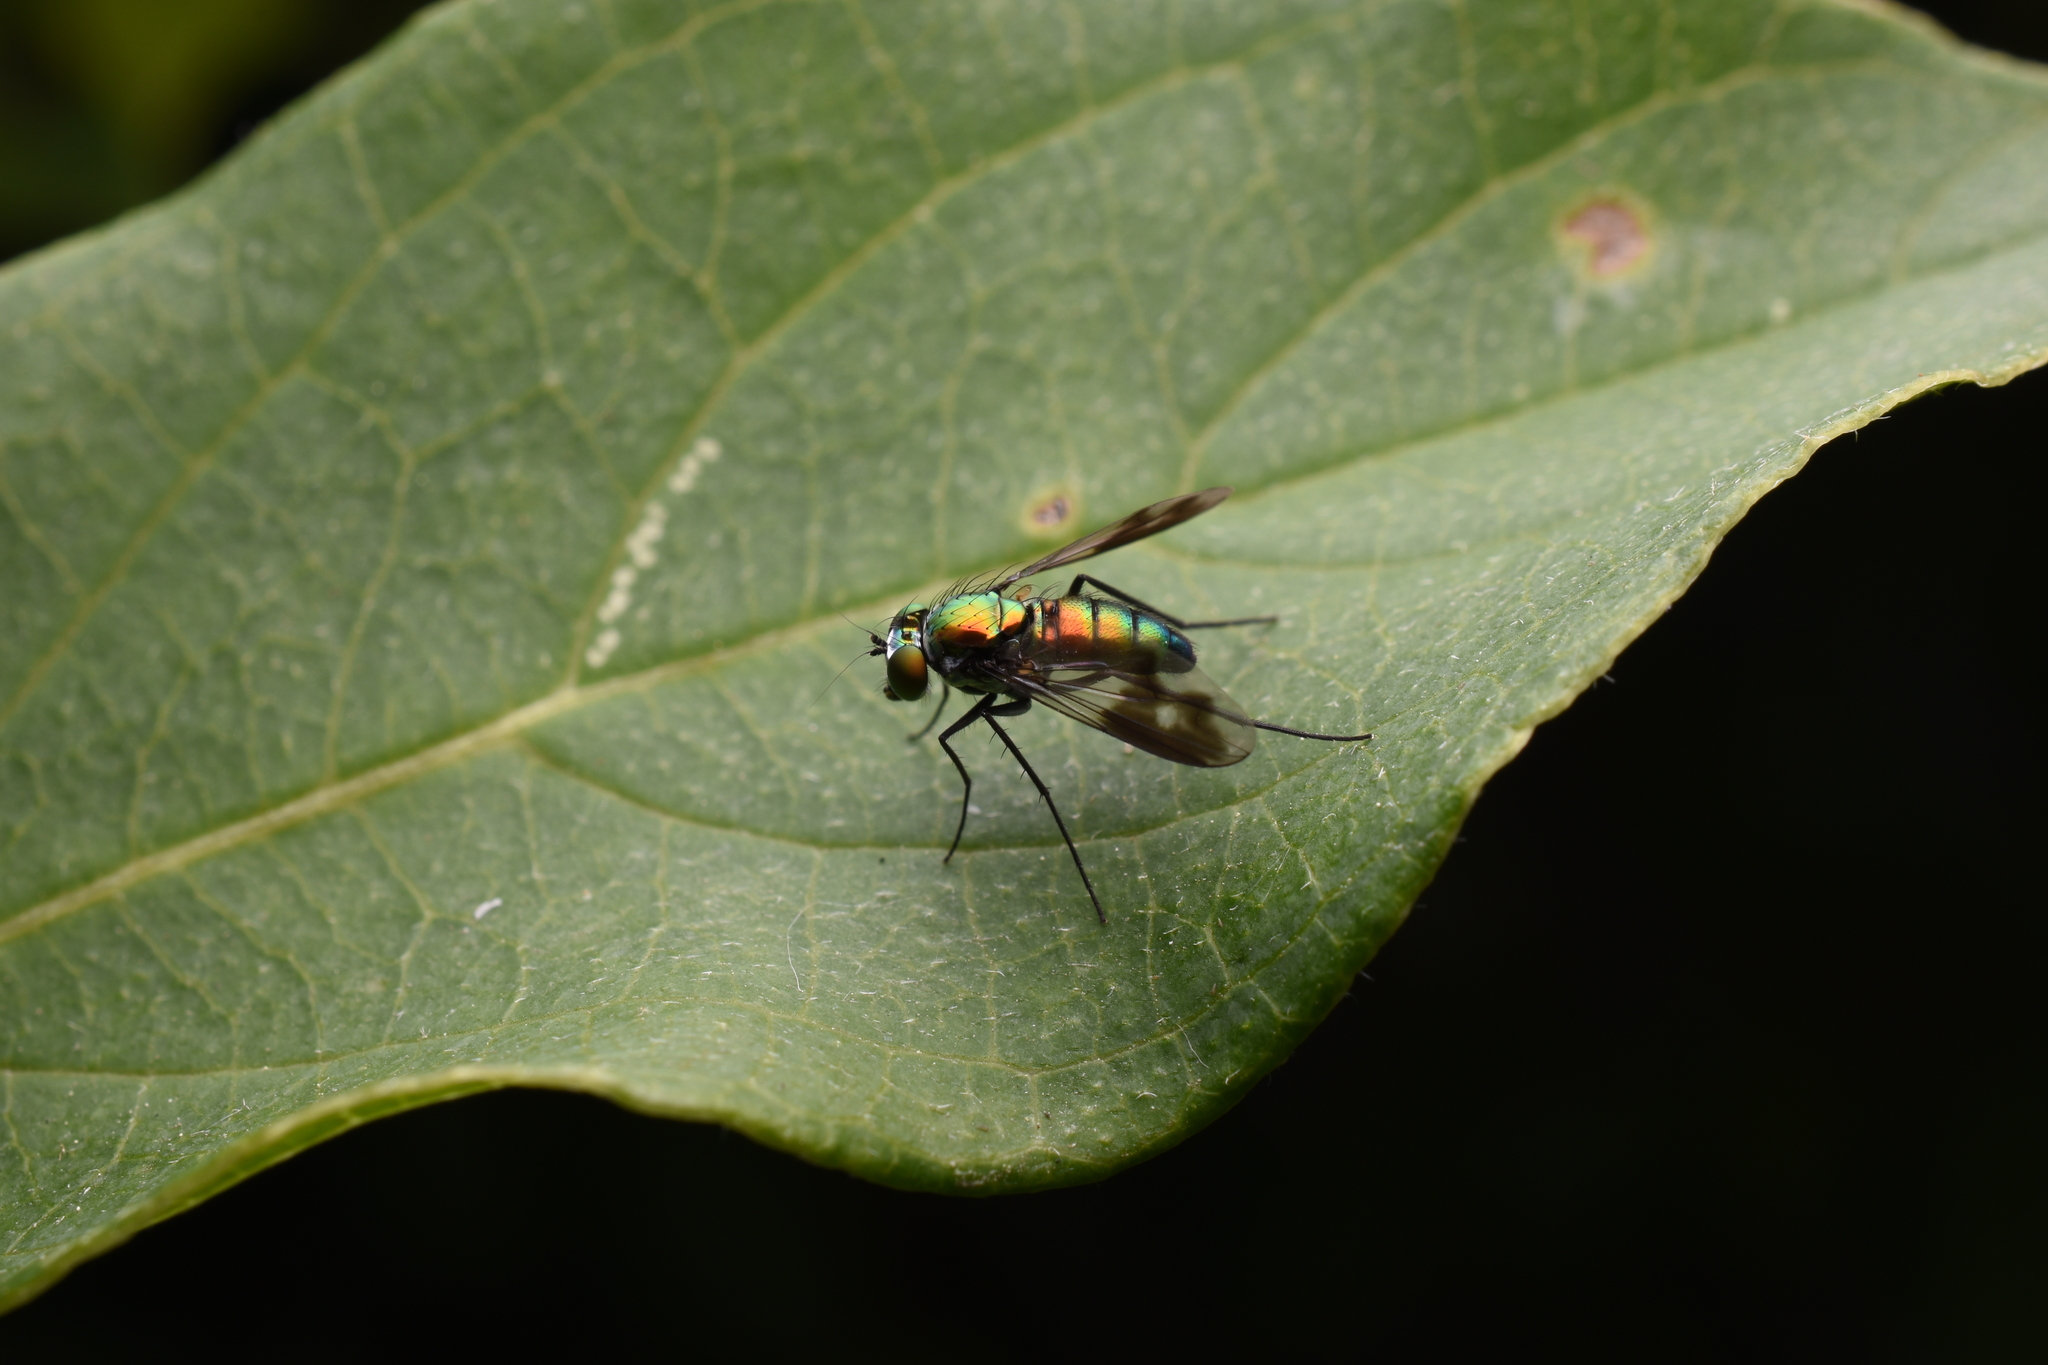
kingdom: Animalia
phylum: Arthropoda
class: Insecta
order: Diptera
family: Dolichopodidae
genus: Condylostylus
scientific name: Condylostylus patibulatus
